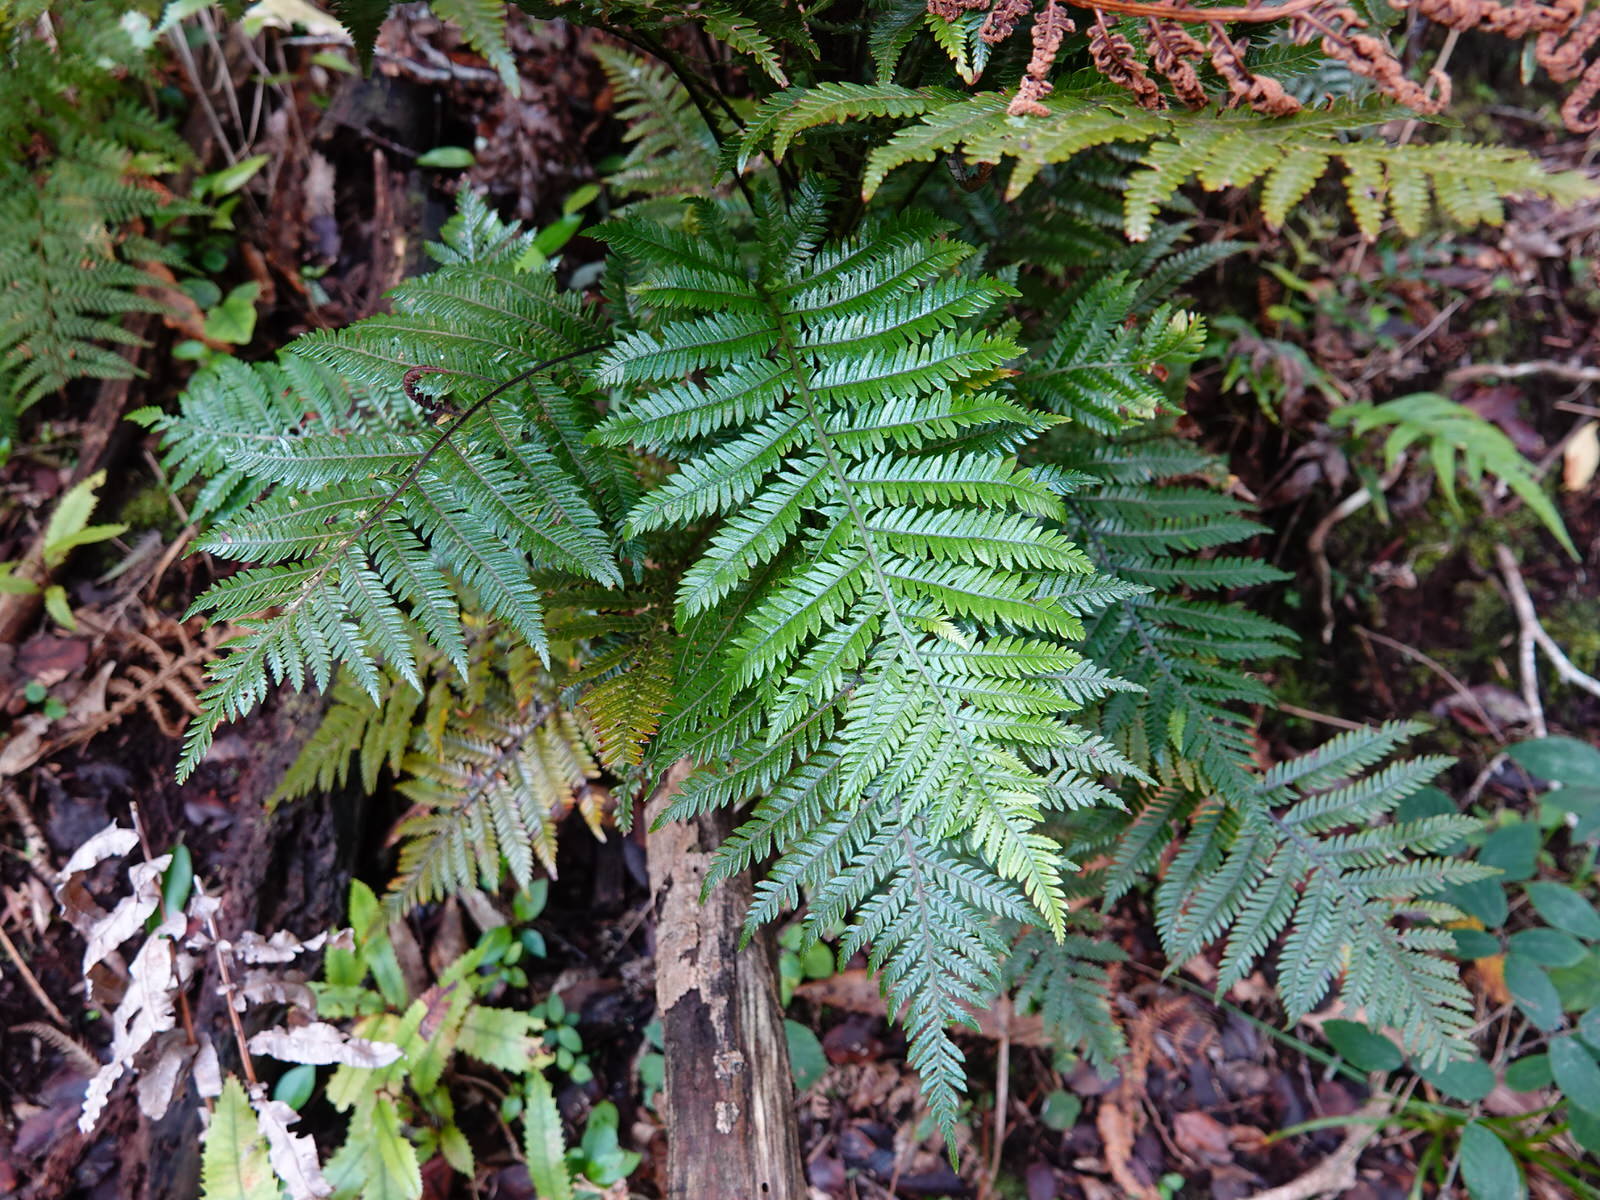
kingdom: Plantae
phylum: Tracheophyta
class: Polypodiopsida
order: Polypodiales
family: Blechnaceae
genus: Diploblechnum
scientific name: Diploblechnum fraseri
